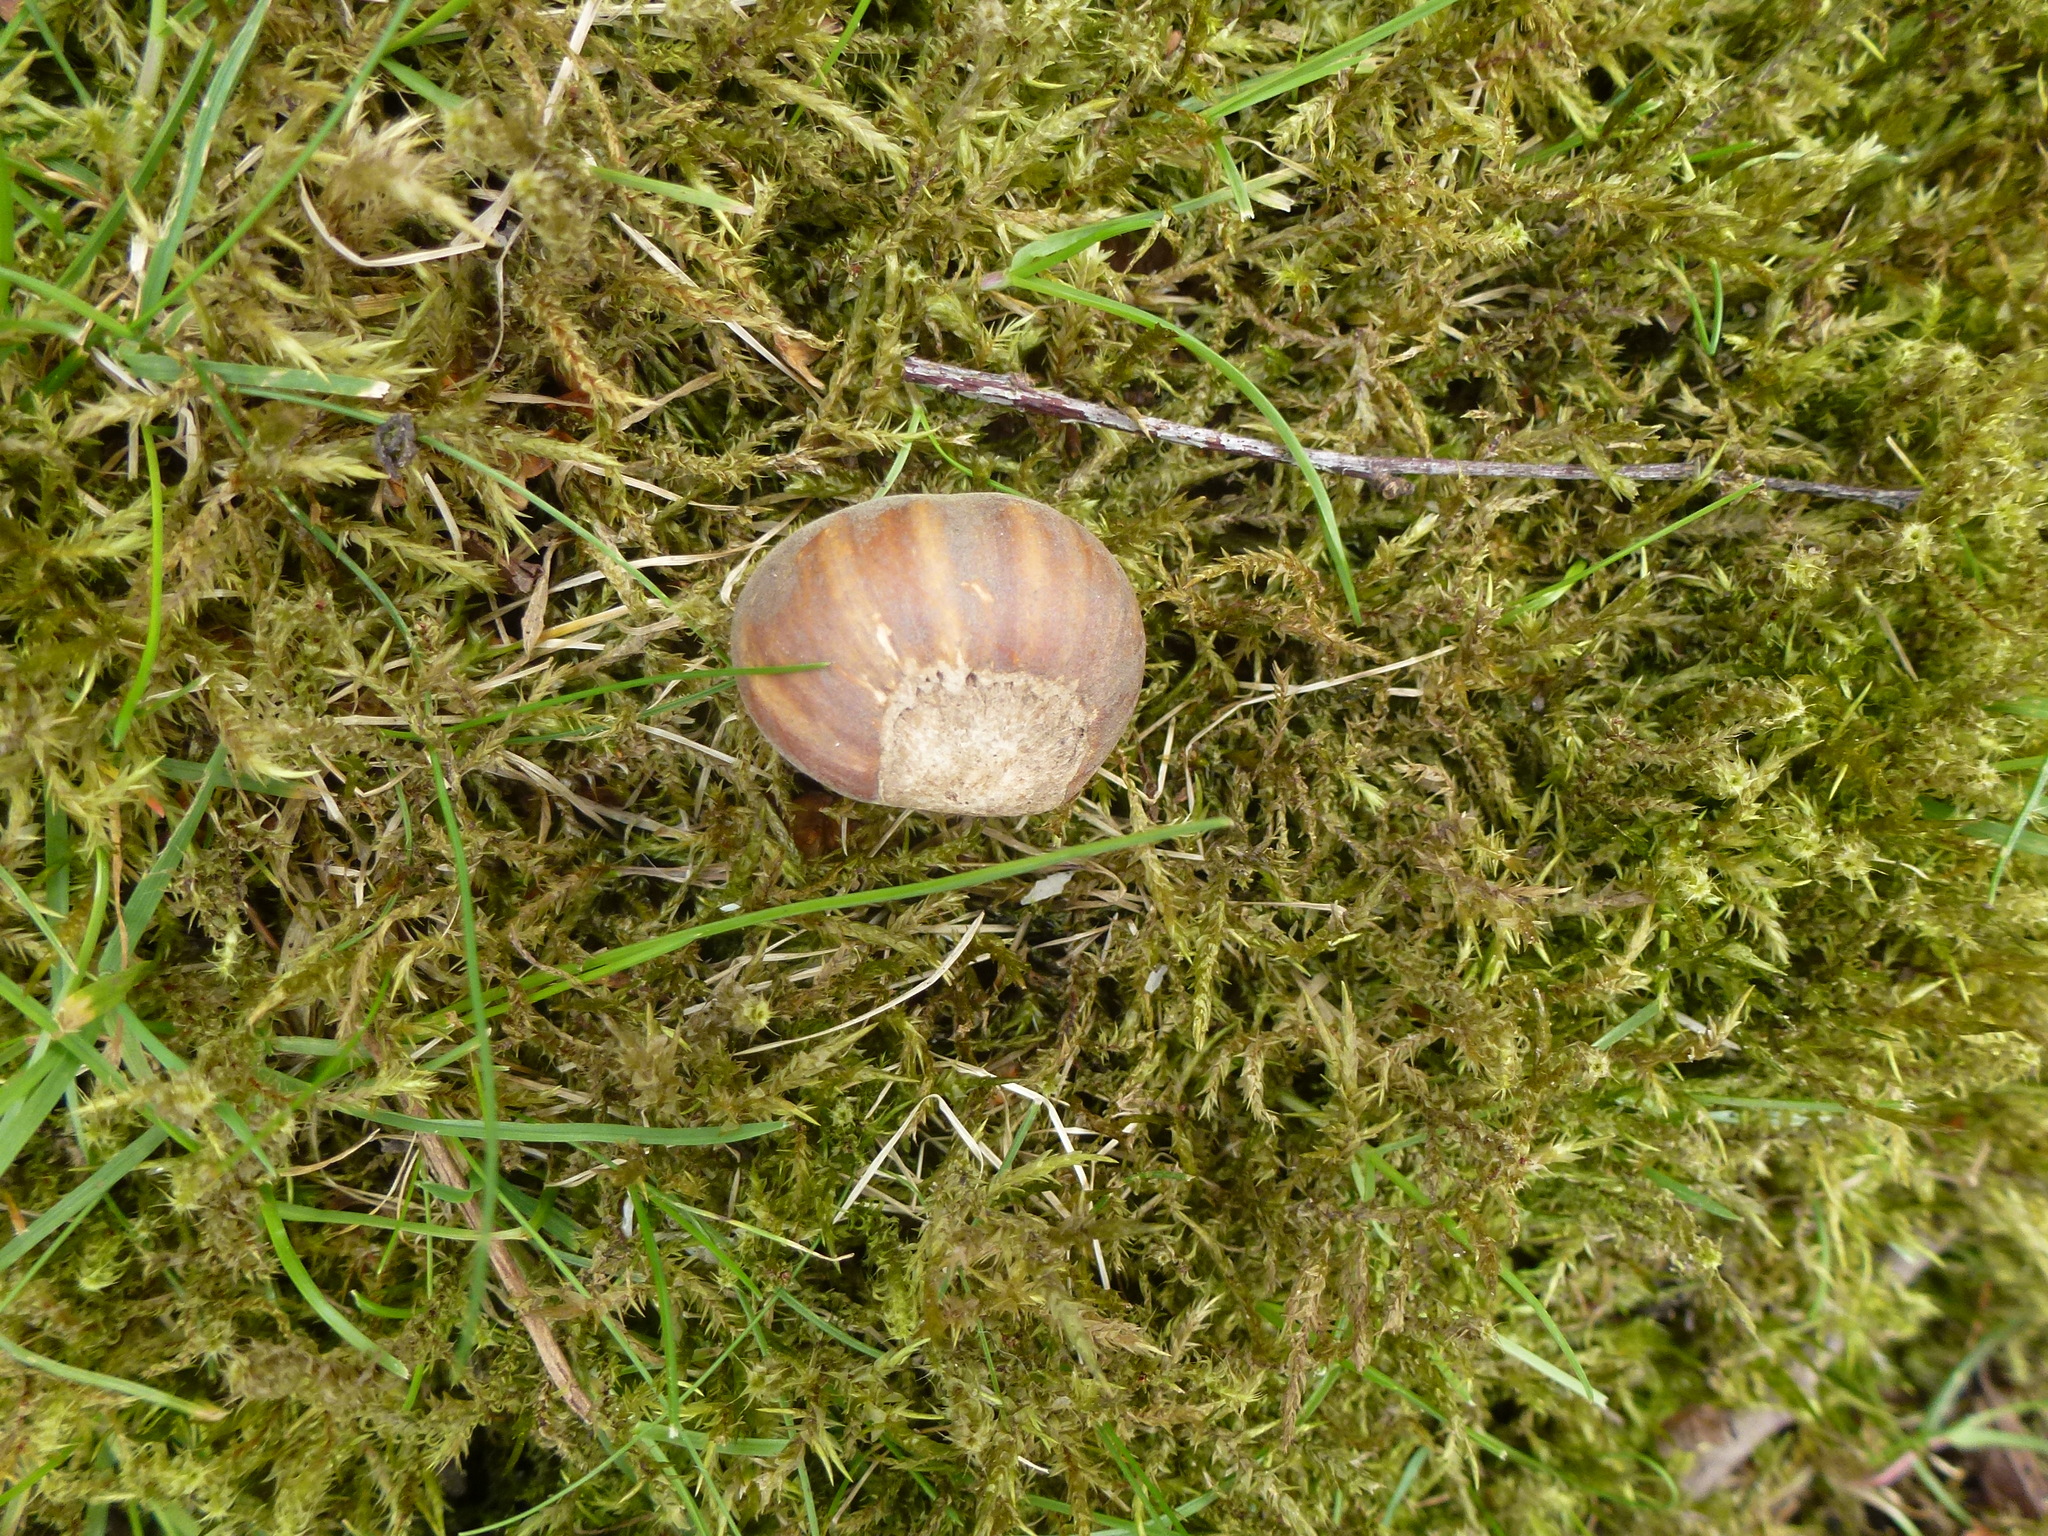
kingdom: Plantae
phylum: Tracheophyta
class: Magnoliopsida
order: Fagales
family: Betulaceae
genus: Corylus
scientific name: Corylus avellana
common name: European hazel
